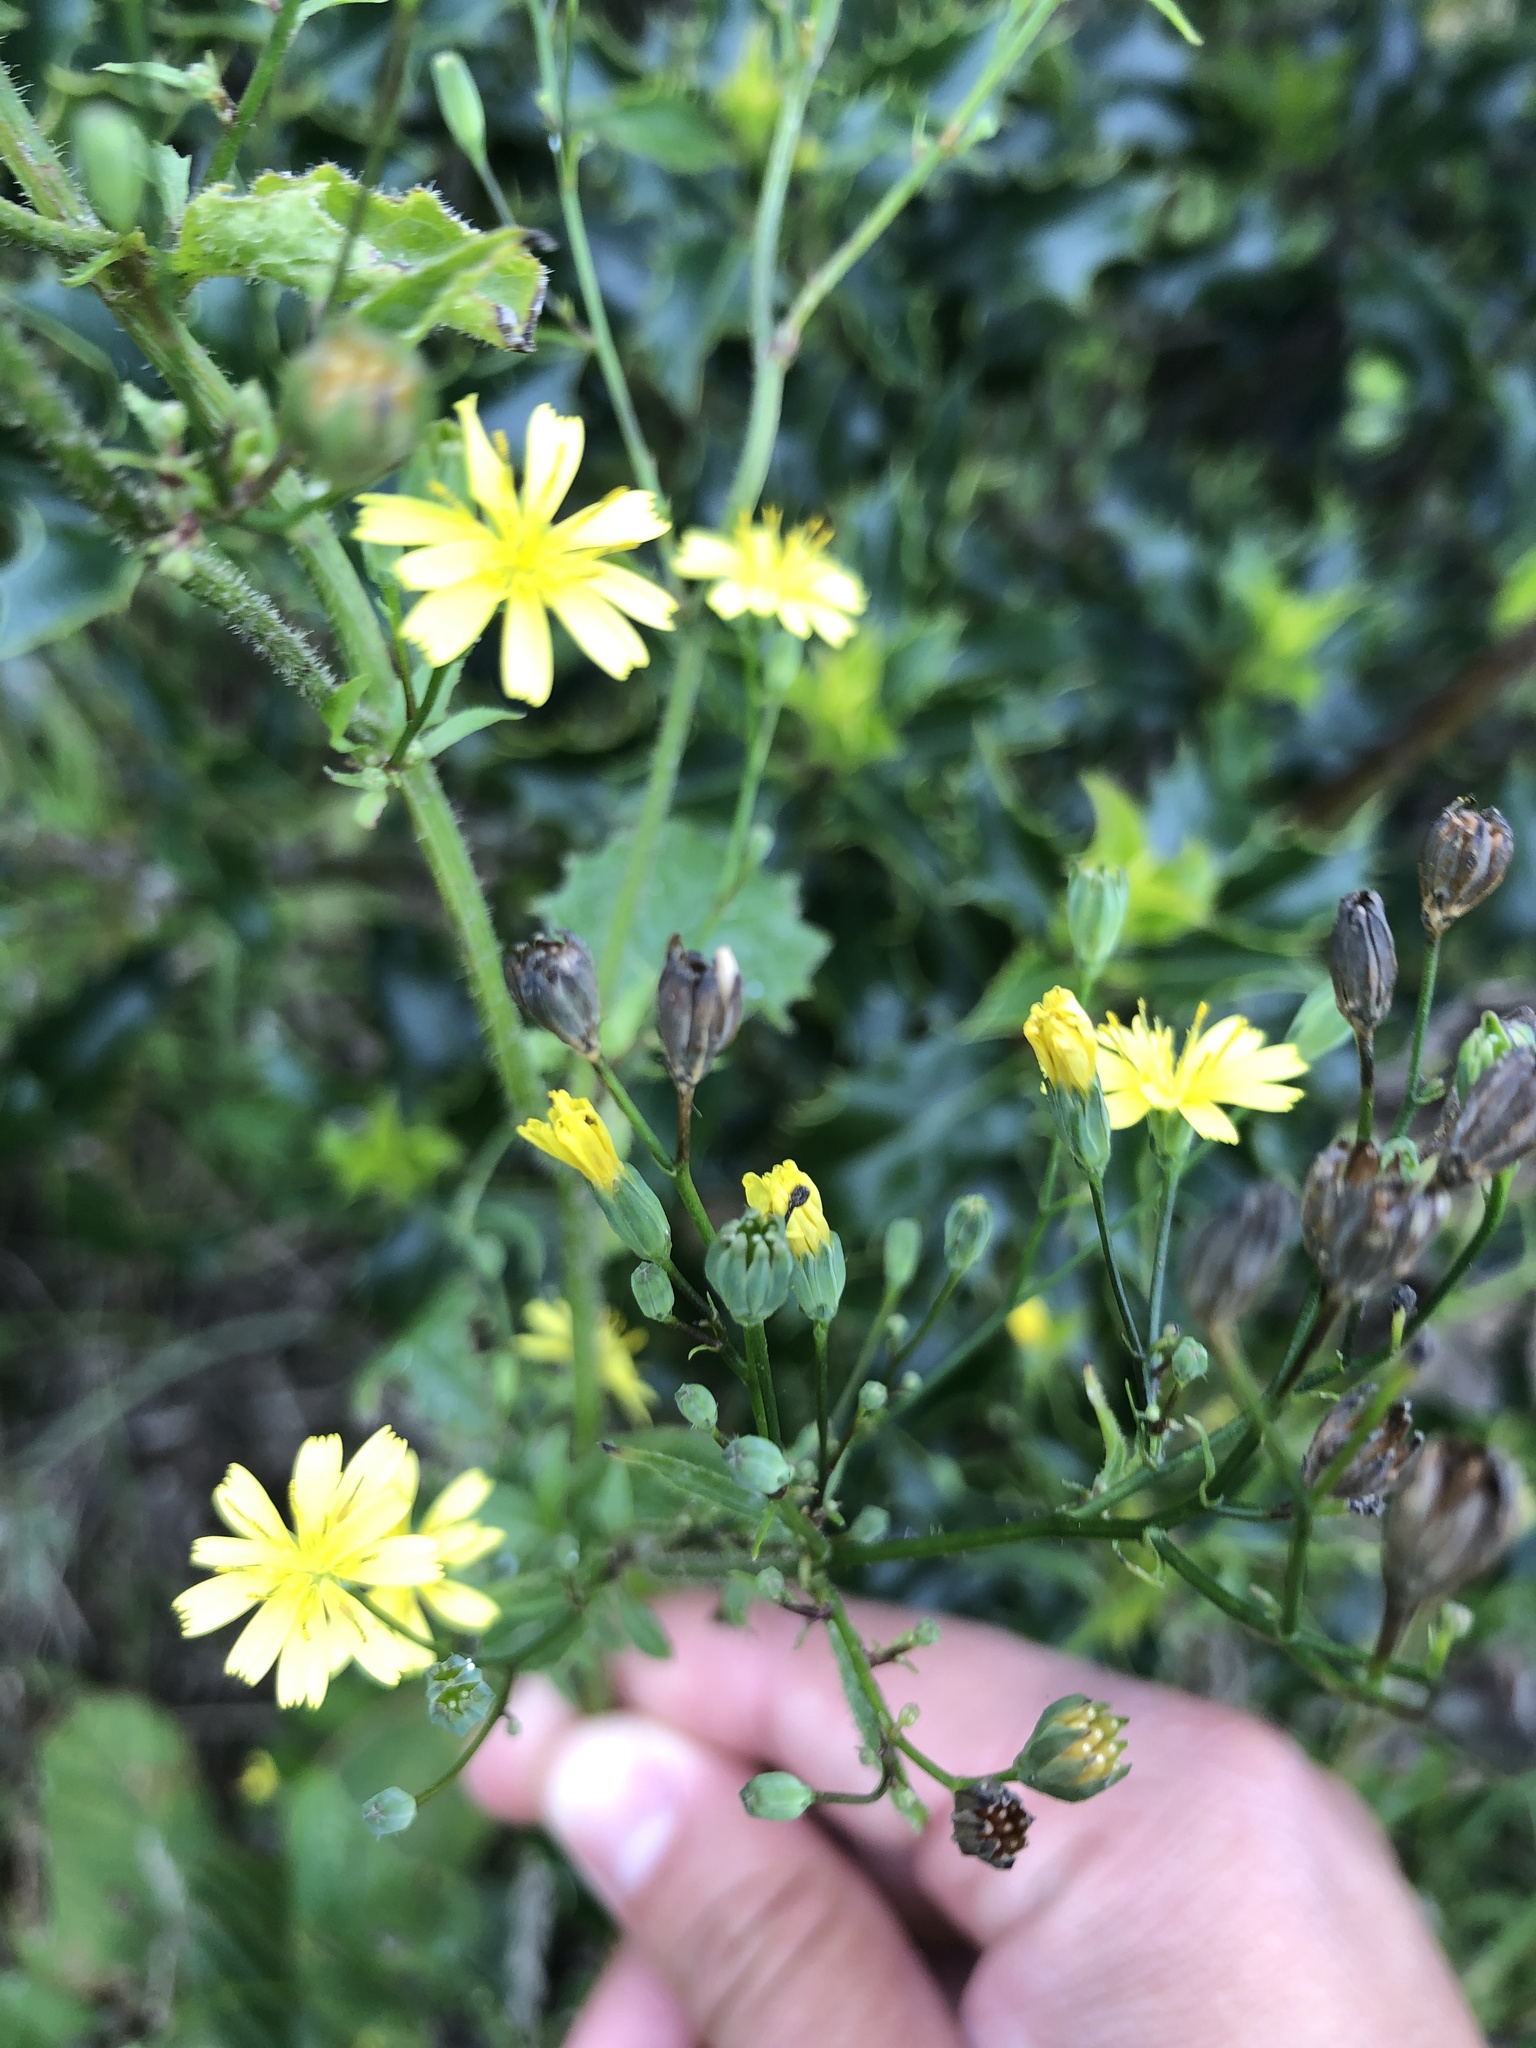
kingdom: Plantae
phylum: Tracheophyta
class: Magnoliopsida
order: Asterales
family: Asteraceae
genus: Lapsana
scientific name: Lapsana communis
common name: Nipplewort
